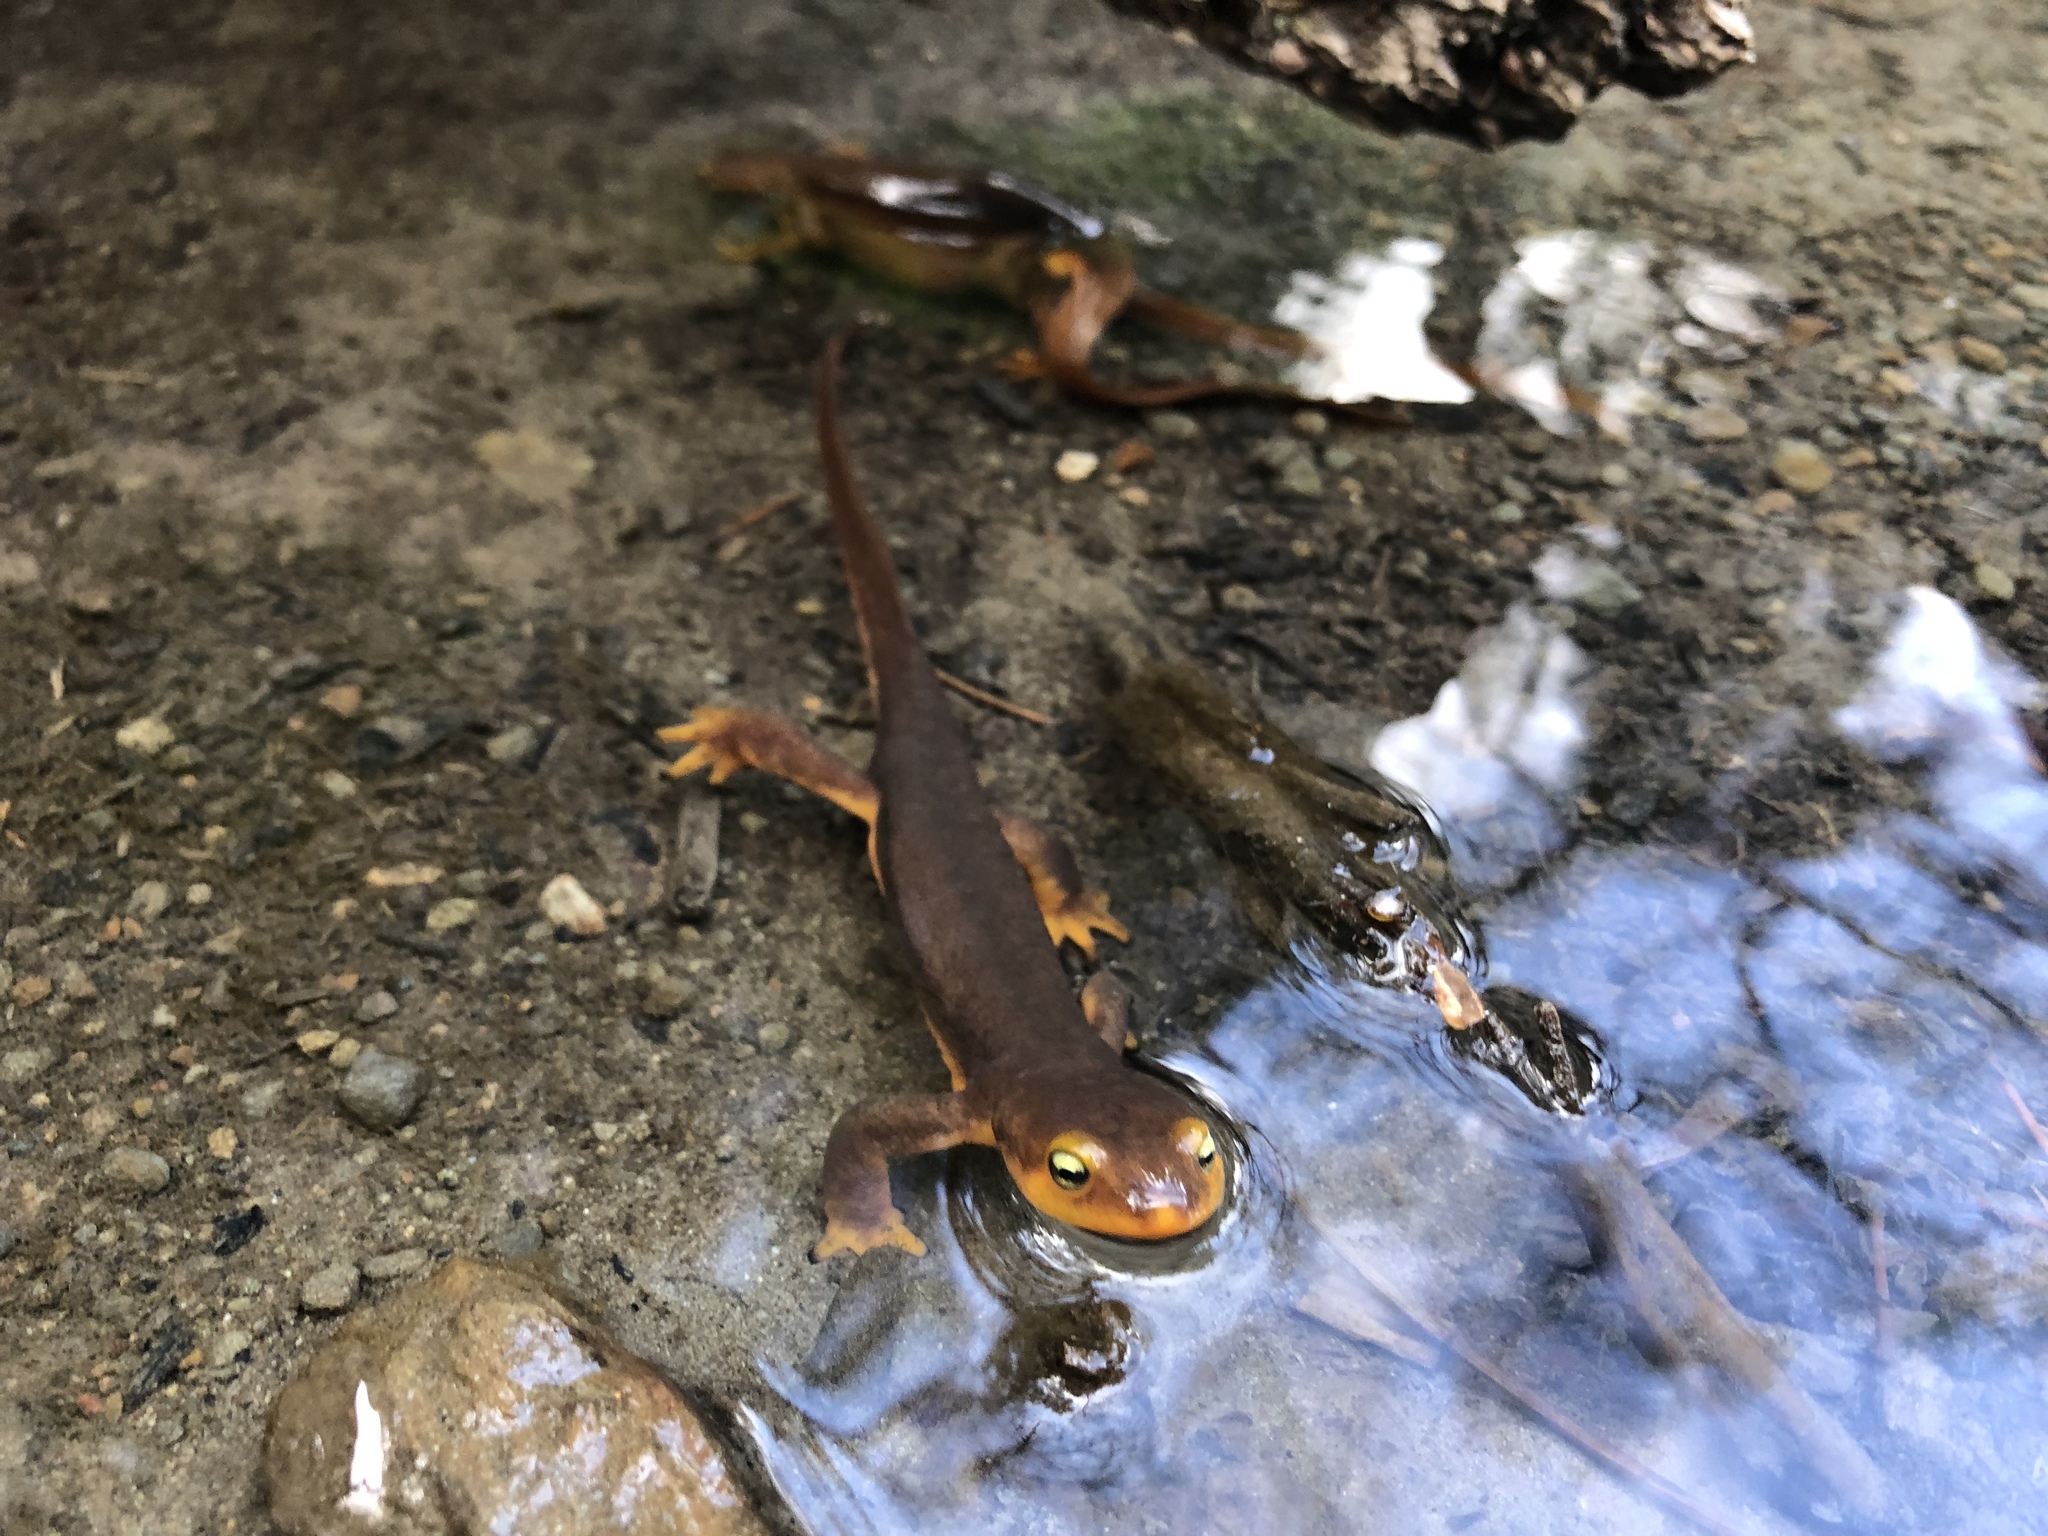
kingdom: Animalia
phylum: Chordata
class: Amphibia
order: Caudata
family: Salamandridae
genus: Taricha
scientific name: Taricha torosa
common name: California newt
